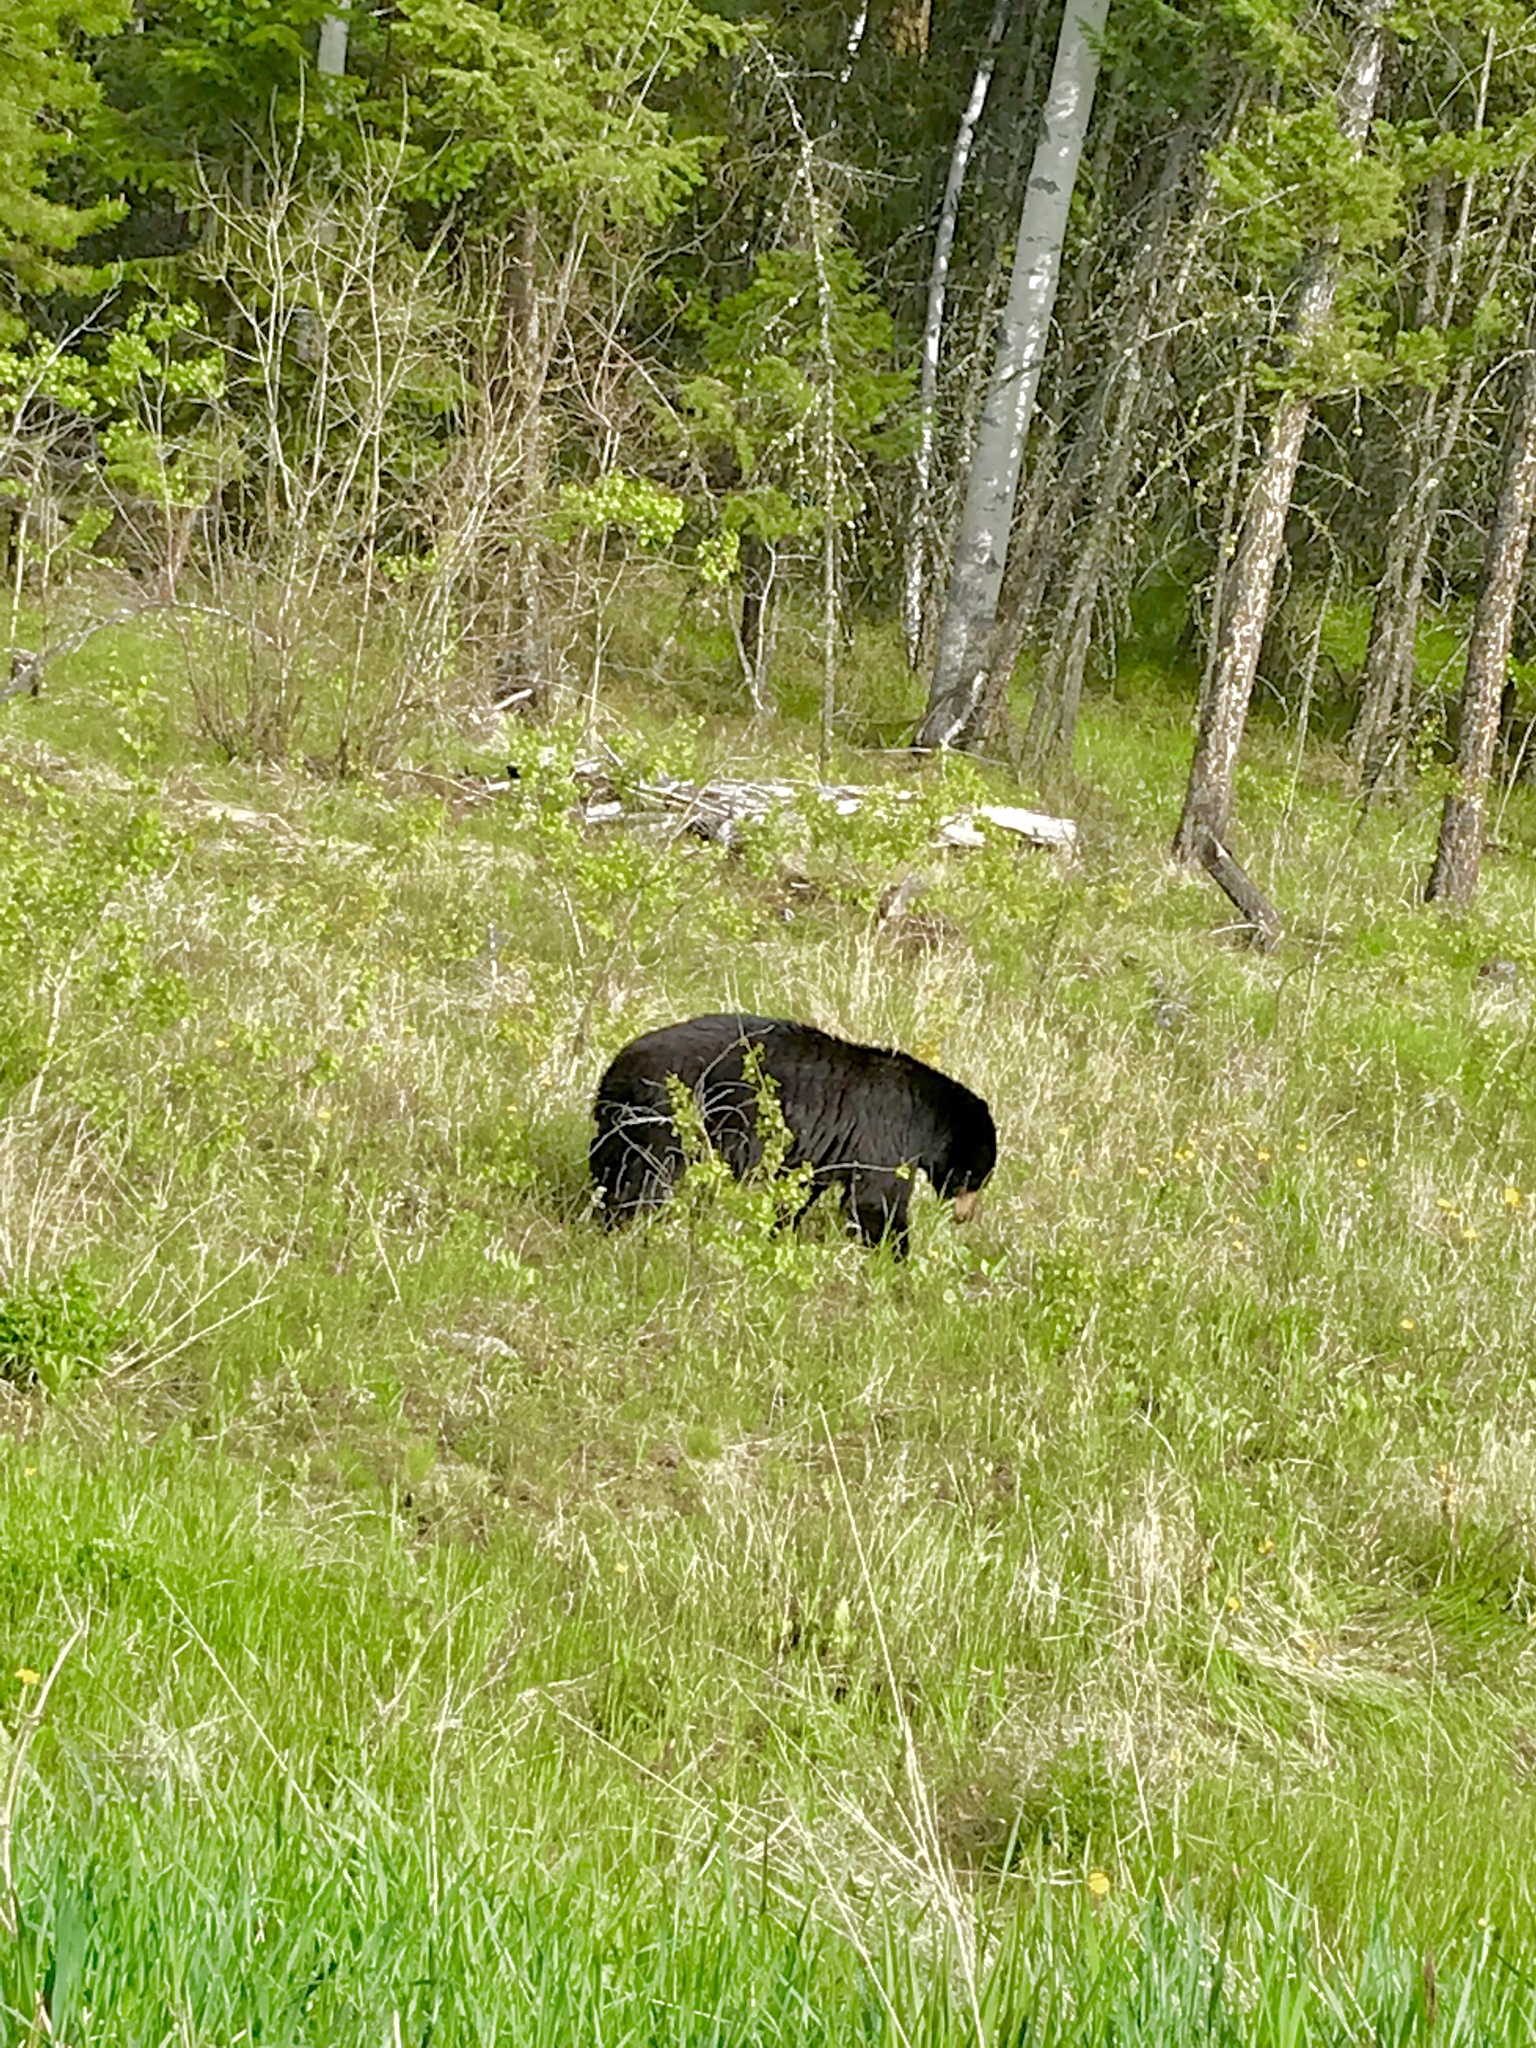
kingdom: Animalia
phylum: Chordata
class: Mammalia
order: Carnivora
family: Ursidae
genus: Ursus
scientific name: Ursus americanus
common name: American black bear
